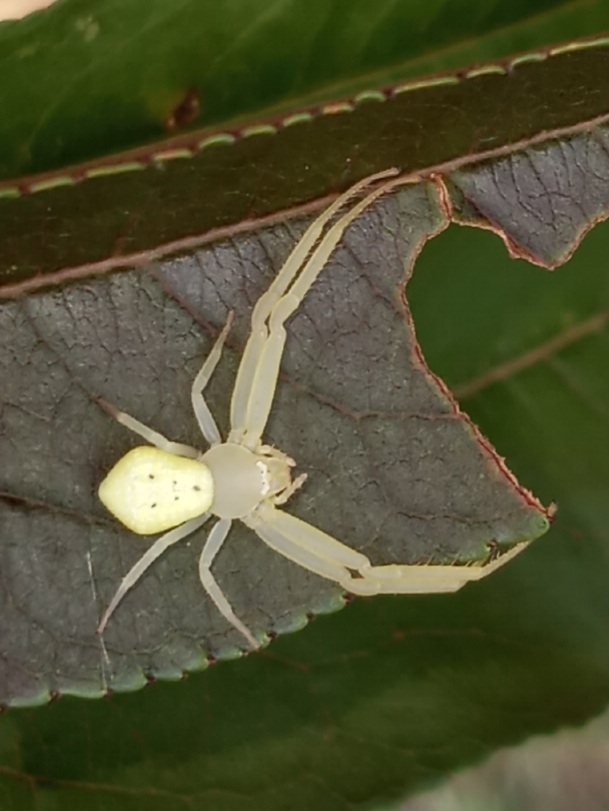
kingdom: Animalia
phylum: Arthropoda
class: Arachnida
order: Araneae
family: Thomisidae
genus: Misumessus
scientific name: Misumessus oblongus
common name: American green crab spider
